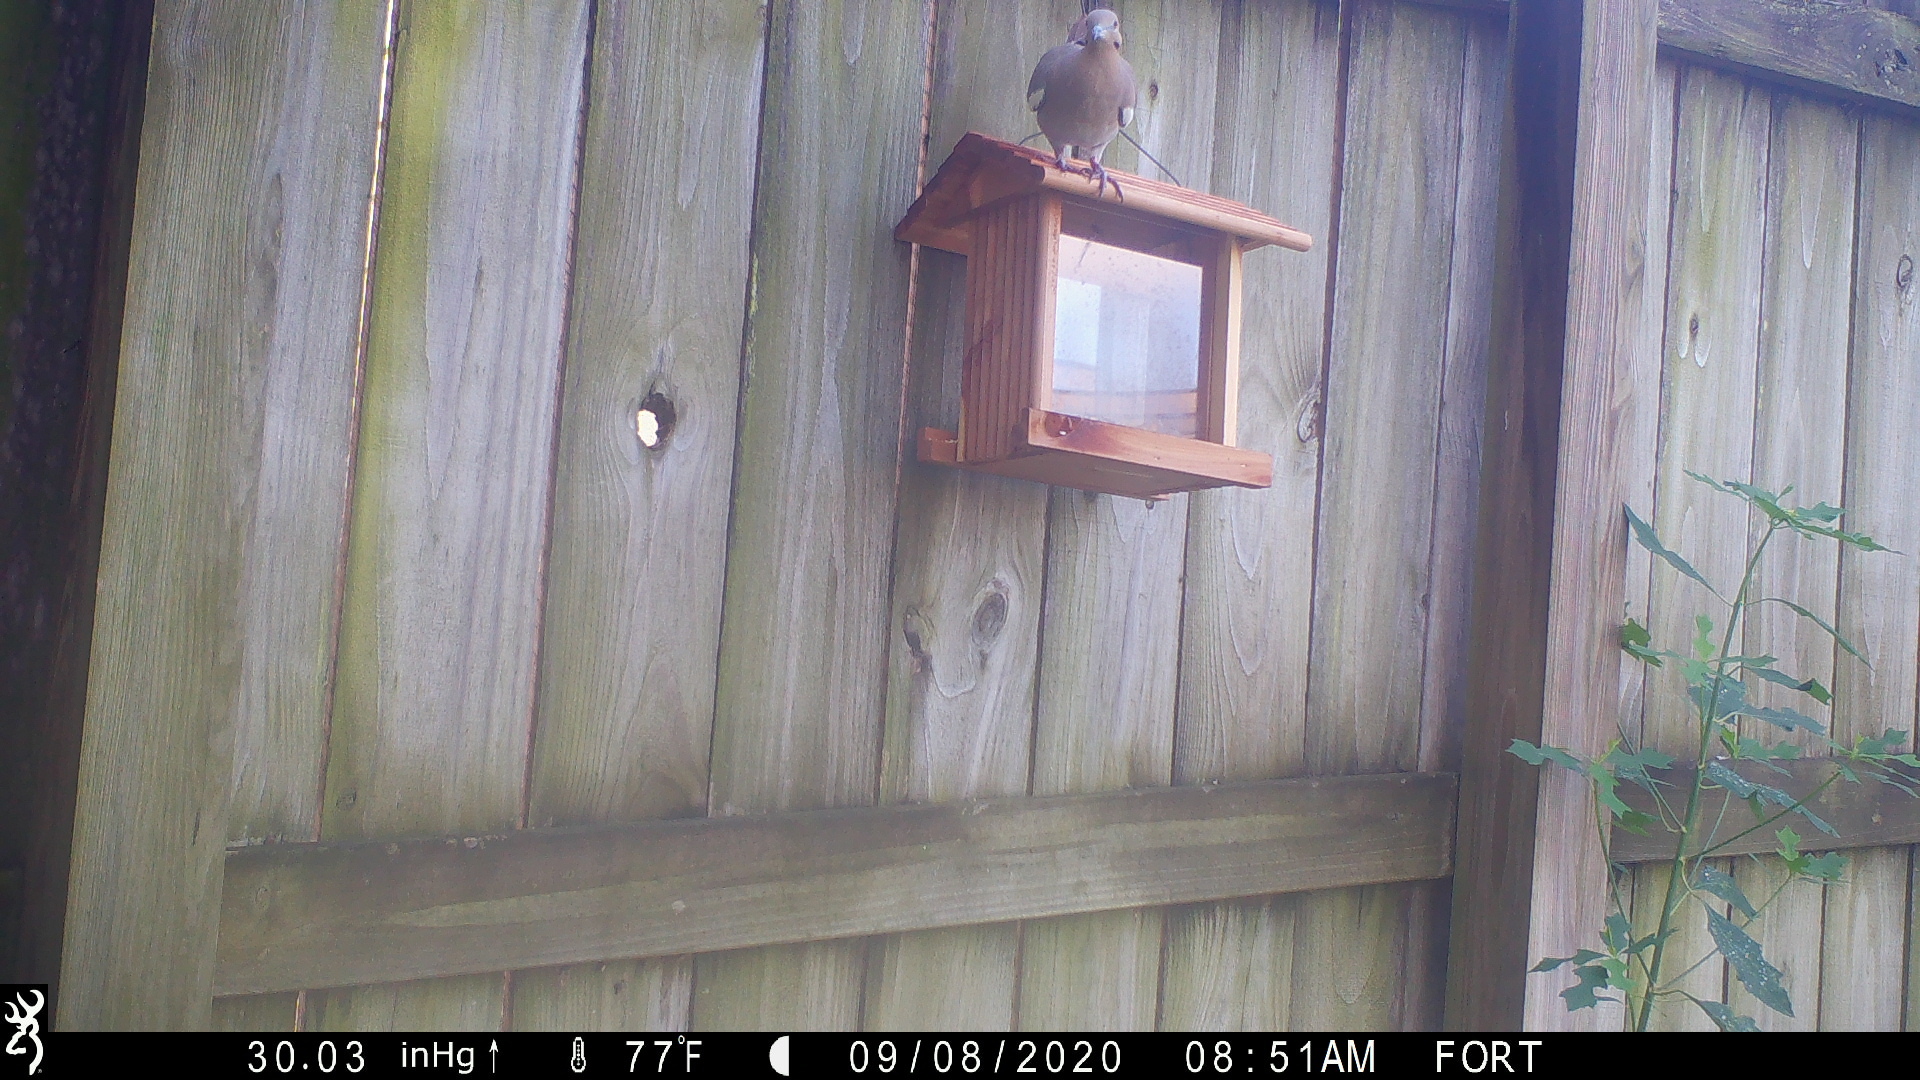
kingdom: Animalia
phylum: Chordata
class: Aves
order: Columbiformes
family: Columbidae
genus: Zenaida
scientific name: Zenaida asiatica
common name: White-winged dove
